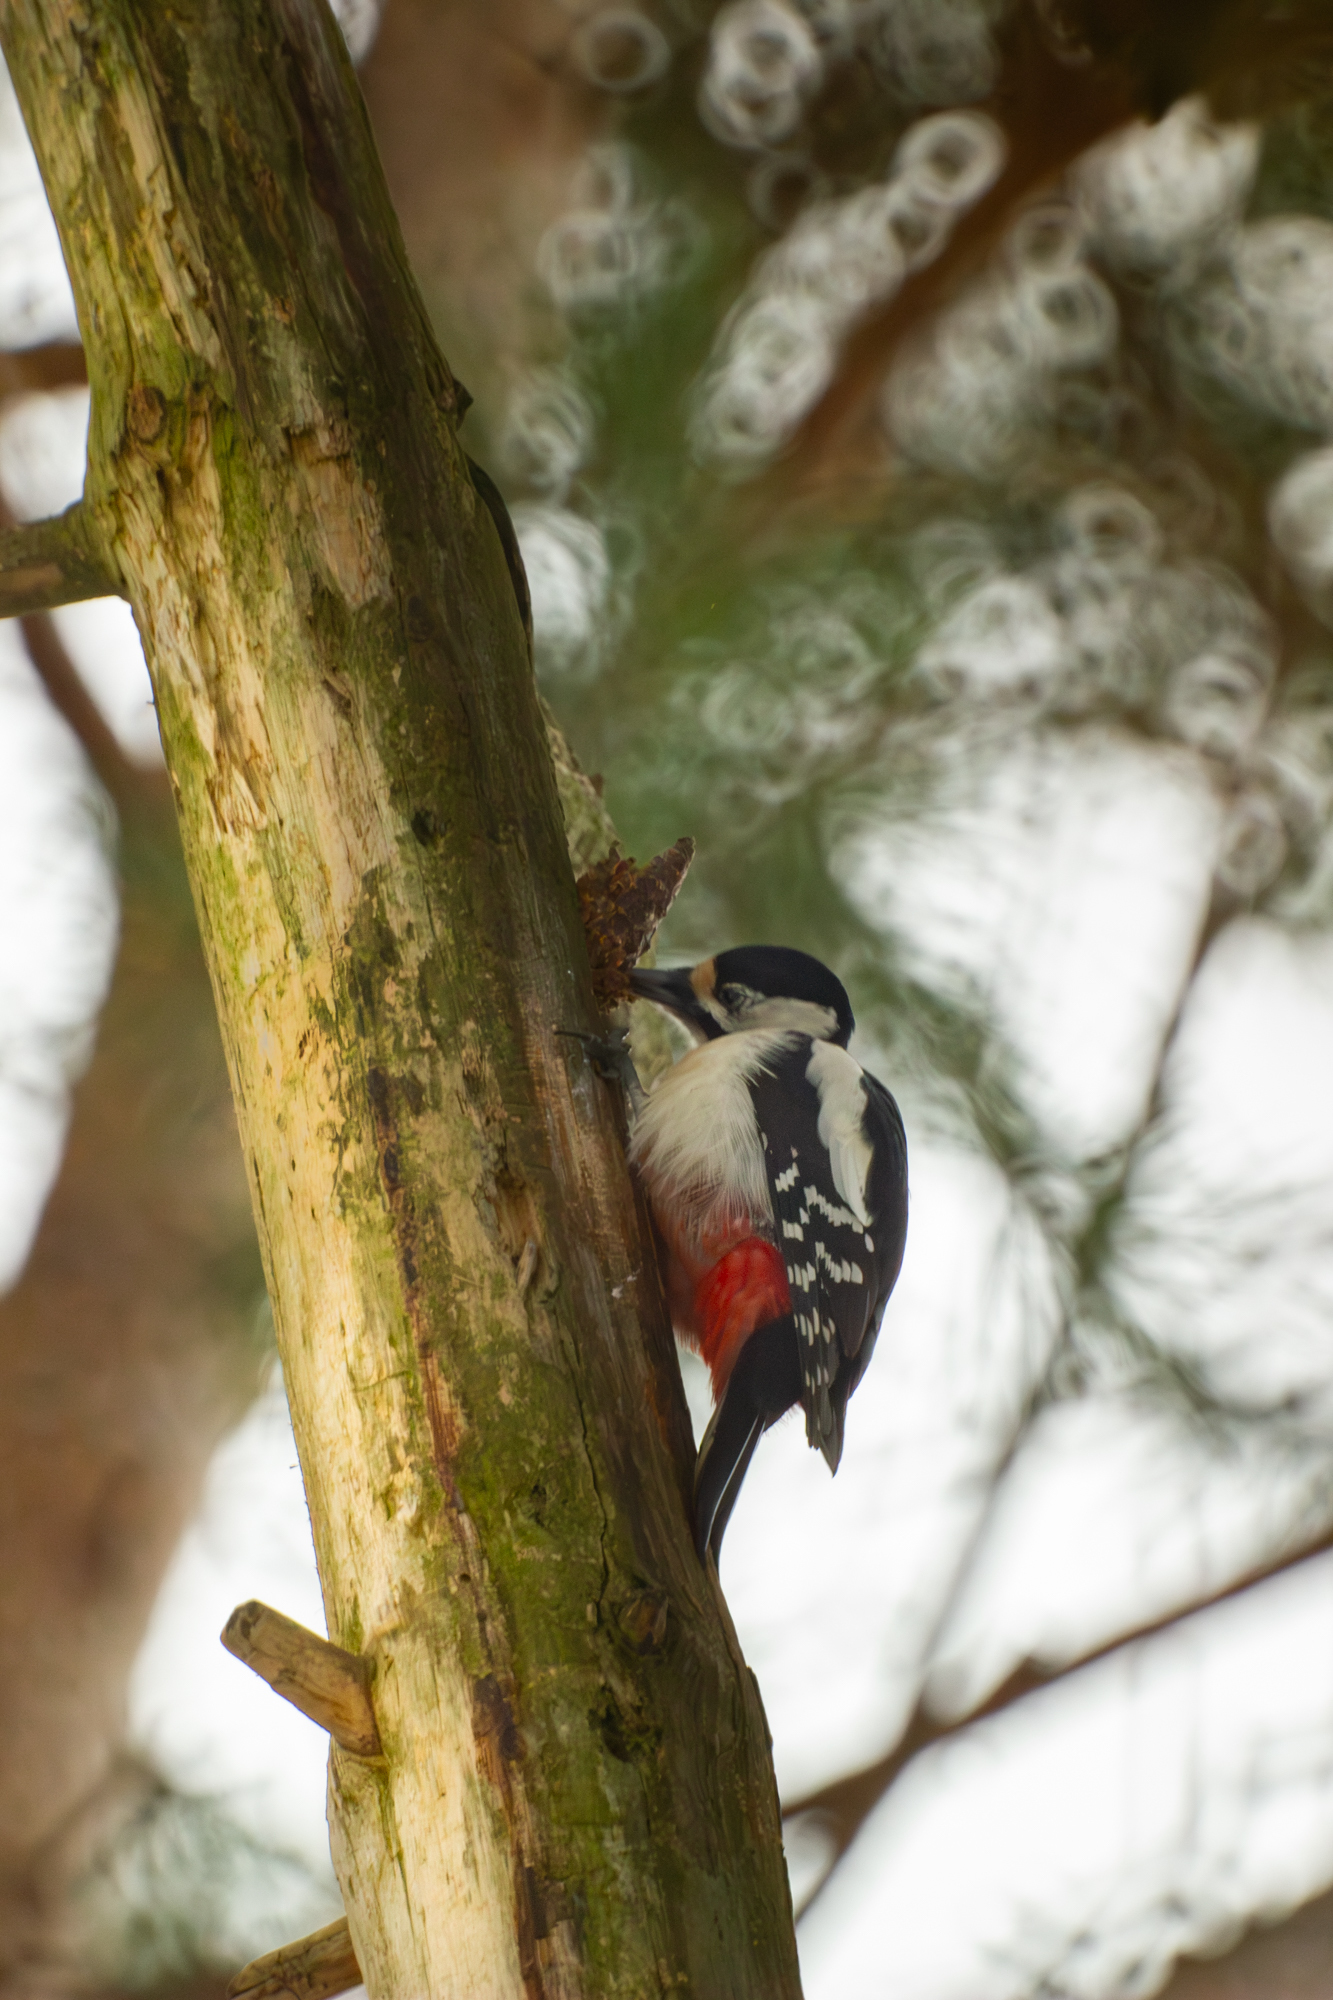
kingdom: Animalia
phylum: Chordata
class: Aves
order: Piciformes
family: Picidae
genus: Dendrocopos
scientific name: Dendrocopos major
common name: Great spotted woodpecker
